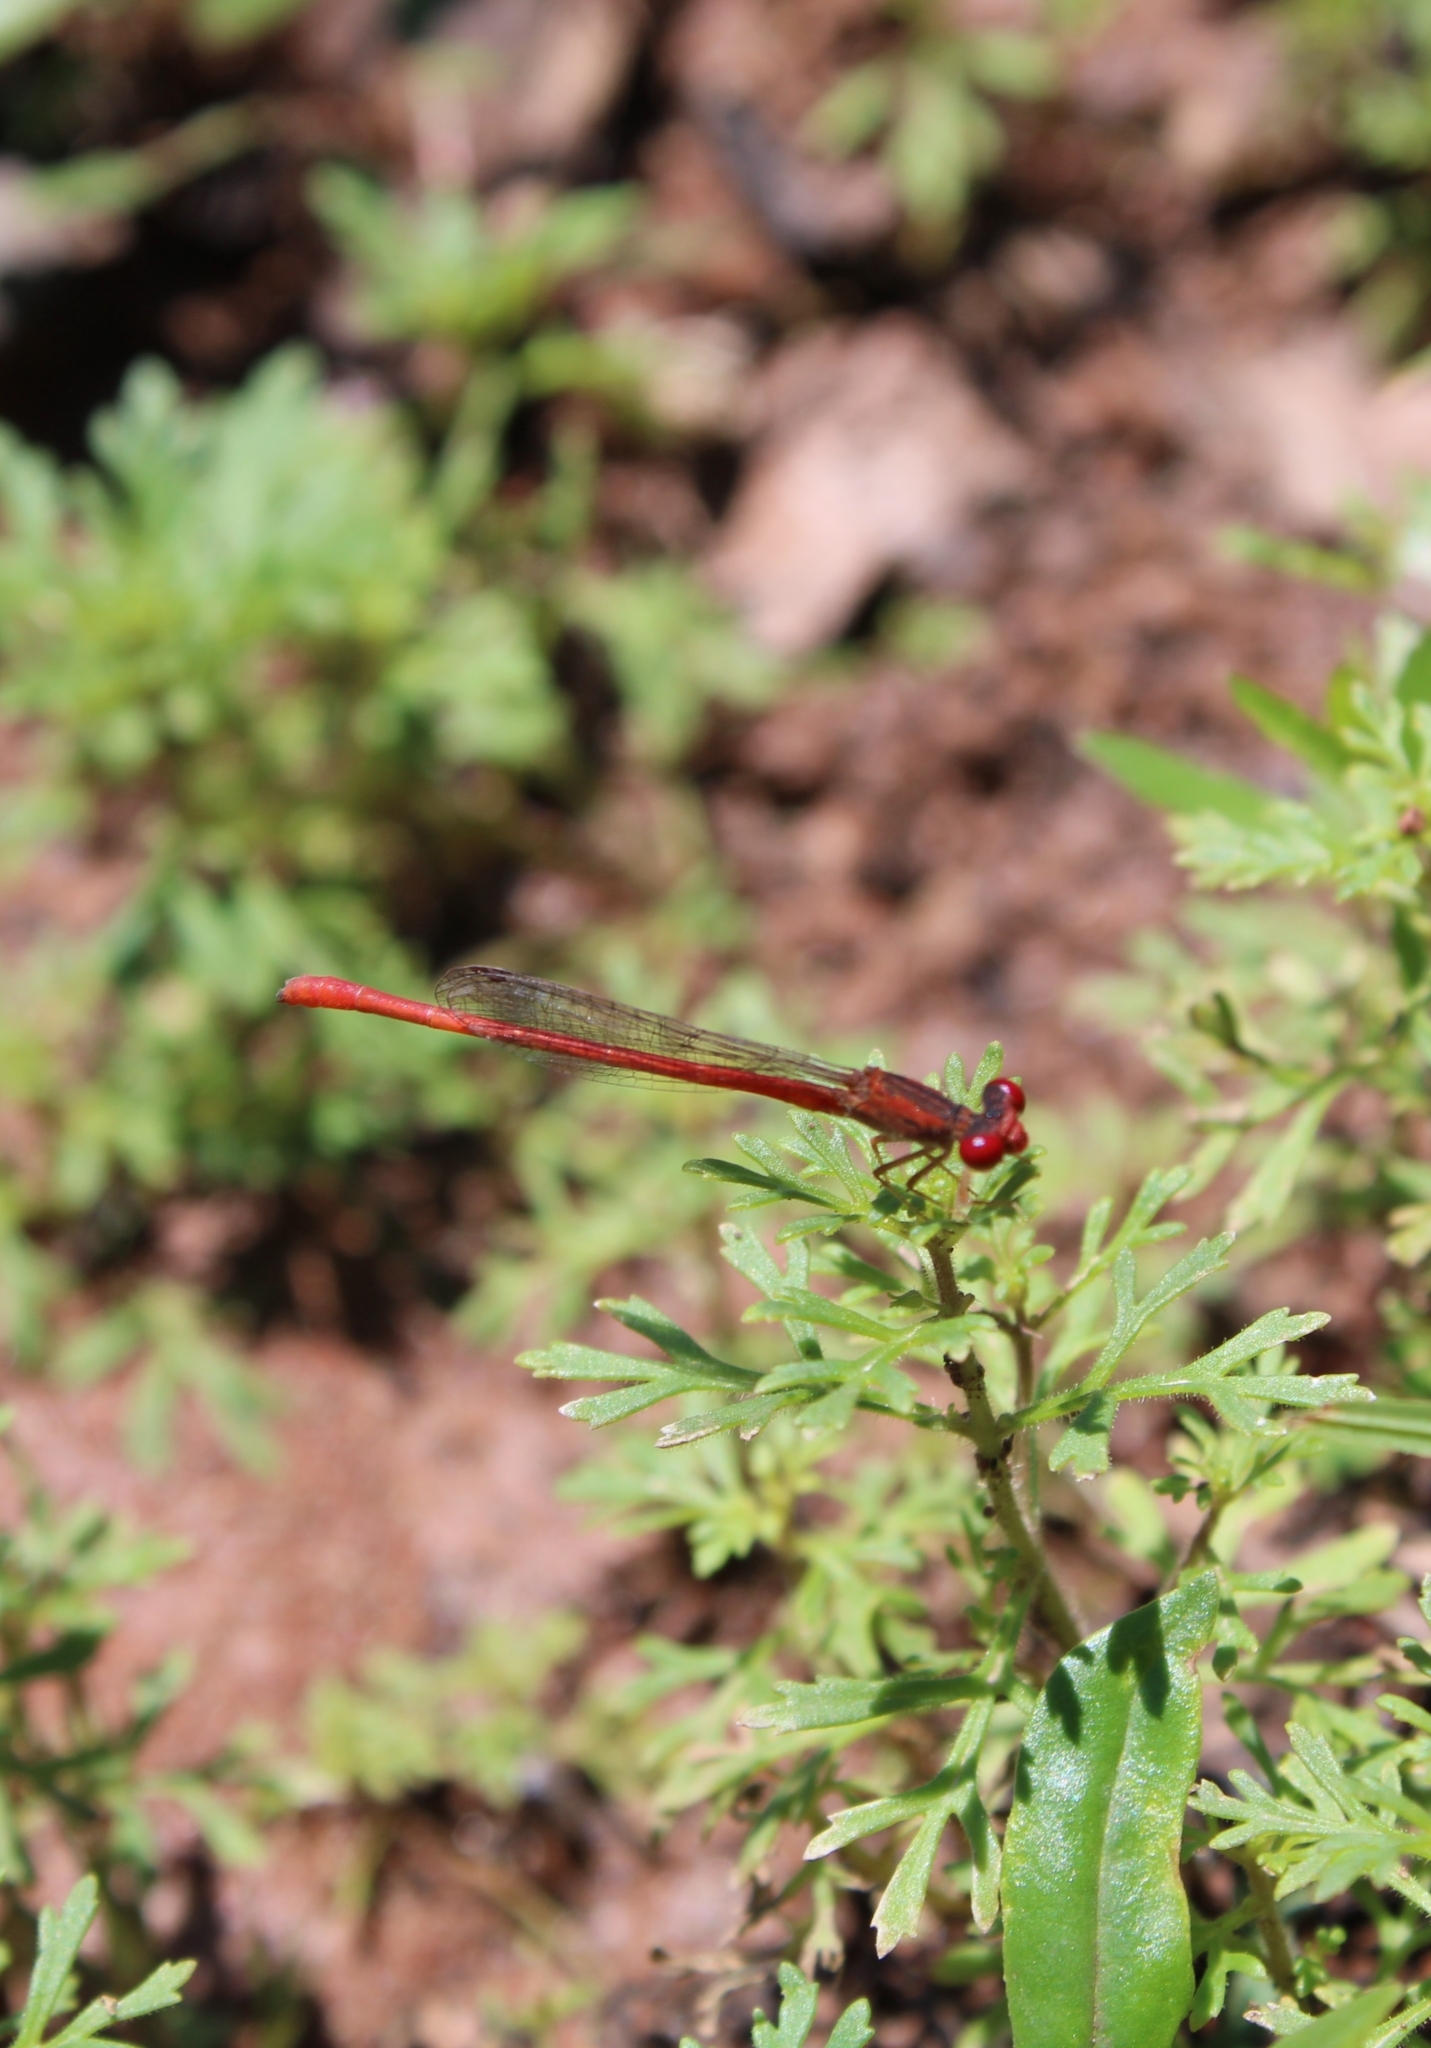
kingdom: Animalia
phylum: Arthropoda
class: Insecta
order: Odonata
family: Coenagrionidae
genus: Telebasis
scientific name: Telebasis salva
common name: Desert firetail
